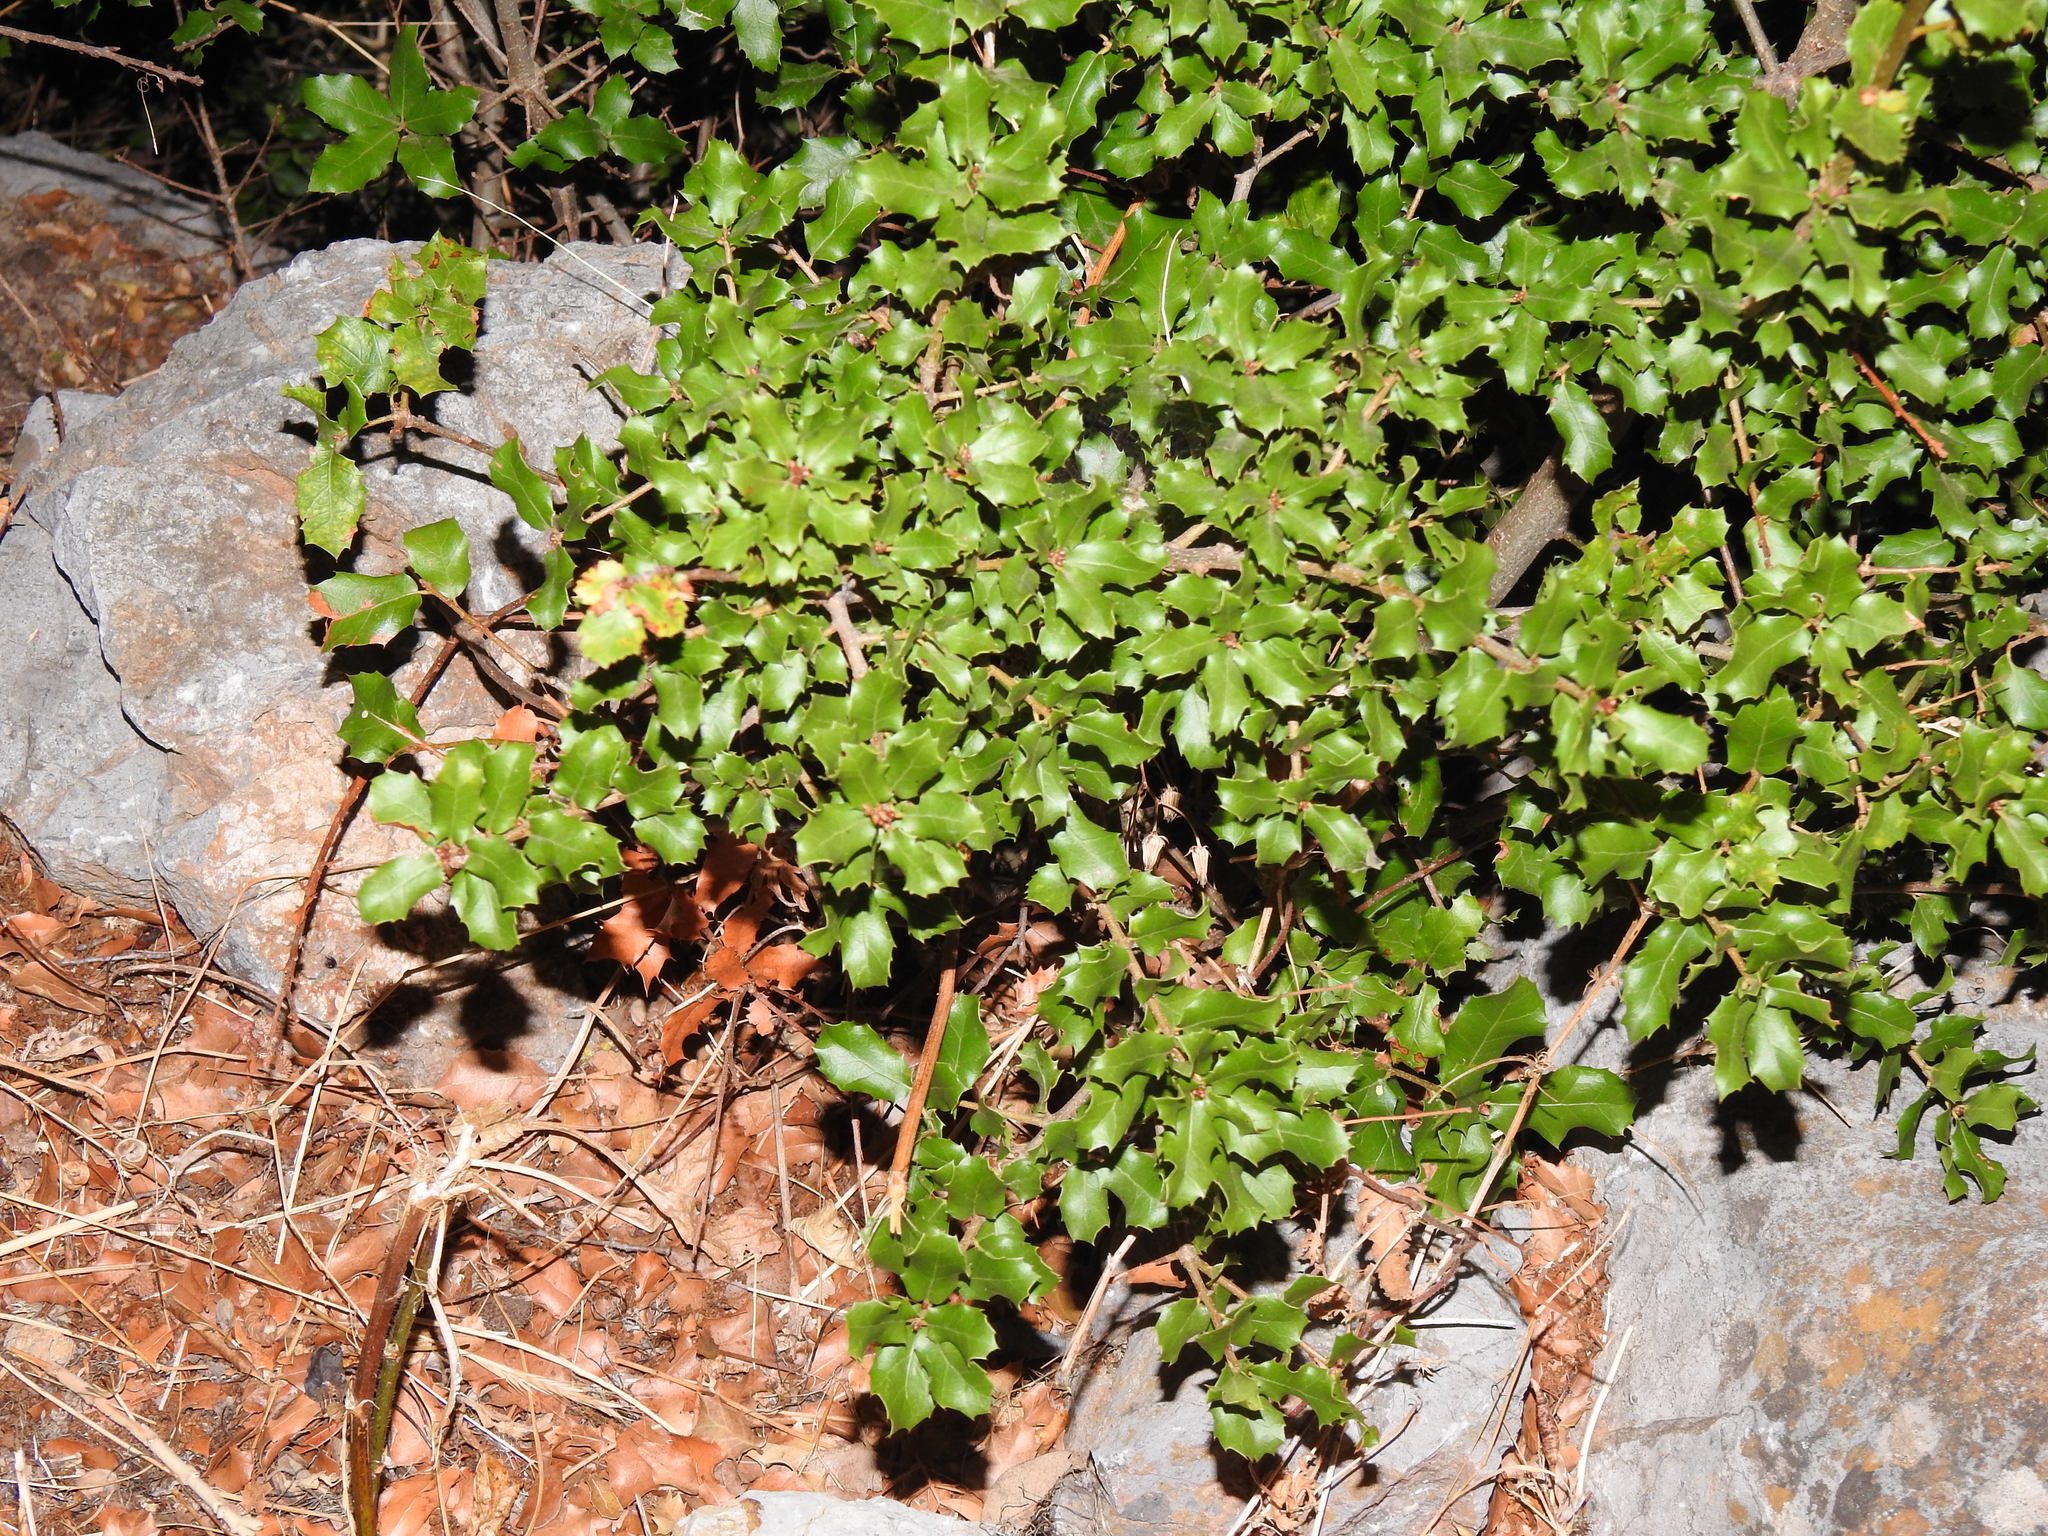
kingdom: Plantae
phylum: Tracheophyta
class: Magnoliopsida
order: Fagales
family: Fagaceae
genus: Quercus
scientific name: Quercus coccifera
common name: Kermes oak
